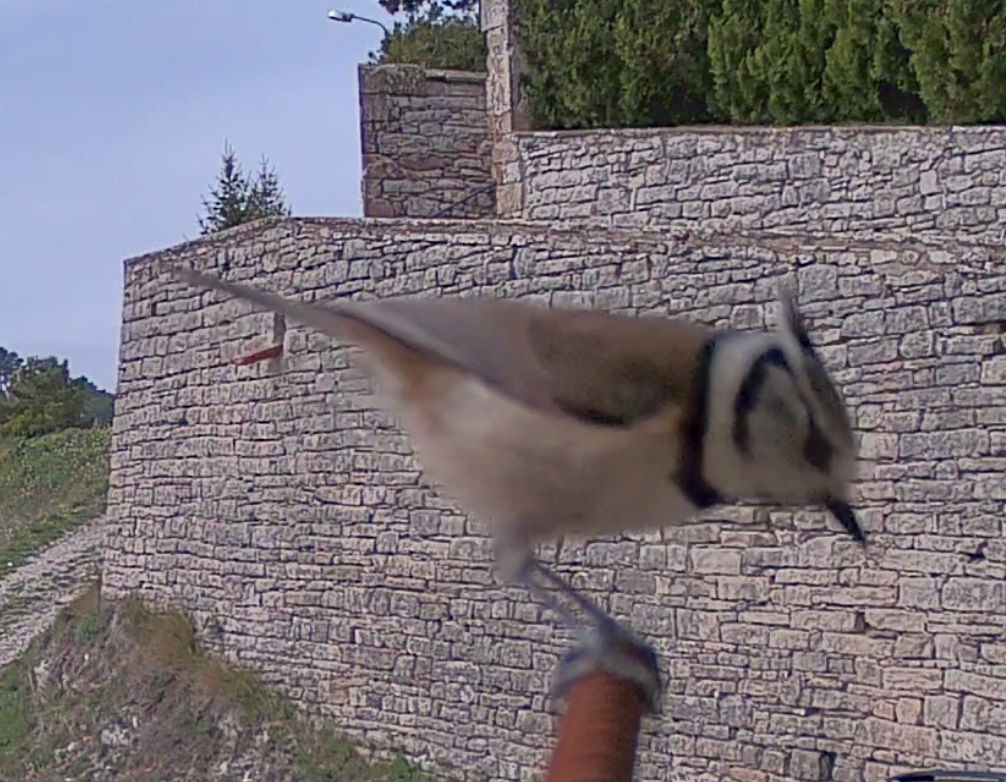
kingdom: Animalia
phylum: Chordata
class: Aves
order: Passeriformes
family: Paridae
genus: Lophophanes
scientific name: Lophophanes cristatus
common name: European crested tit
